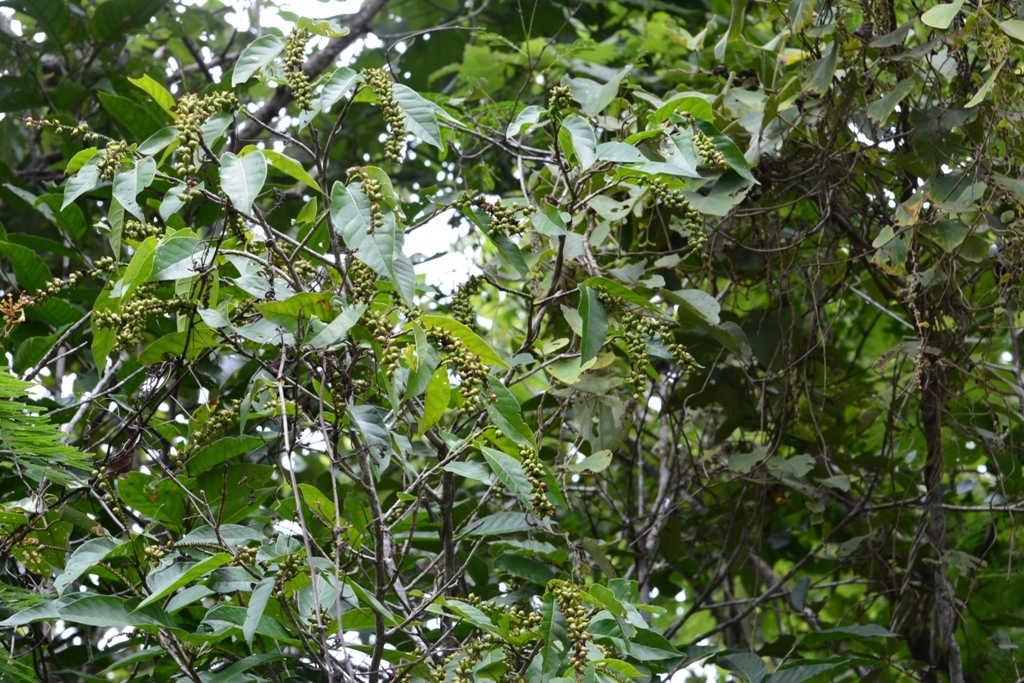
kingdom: Plantae
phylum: Tracheophyta
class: Magnoliopsida
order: Caryophyllales
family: Polygonaceae
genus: Coccoloba
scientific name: Coccoloba montana
